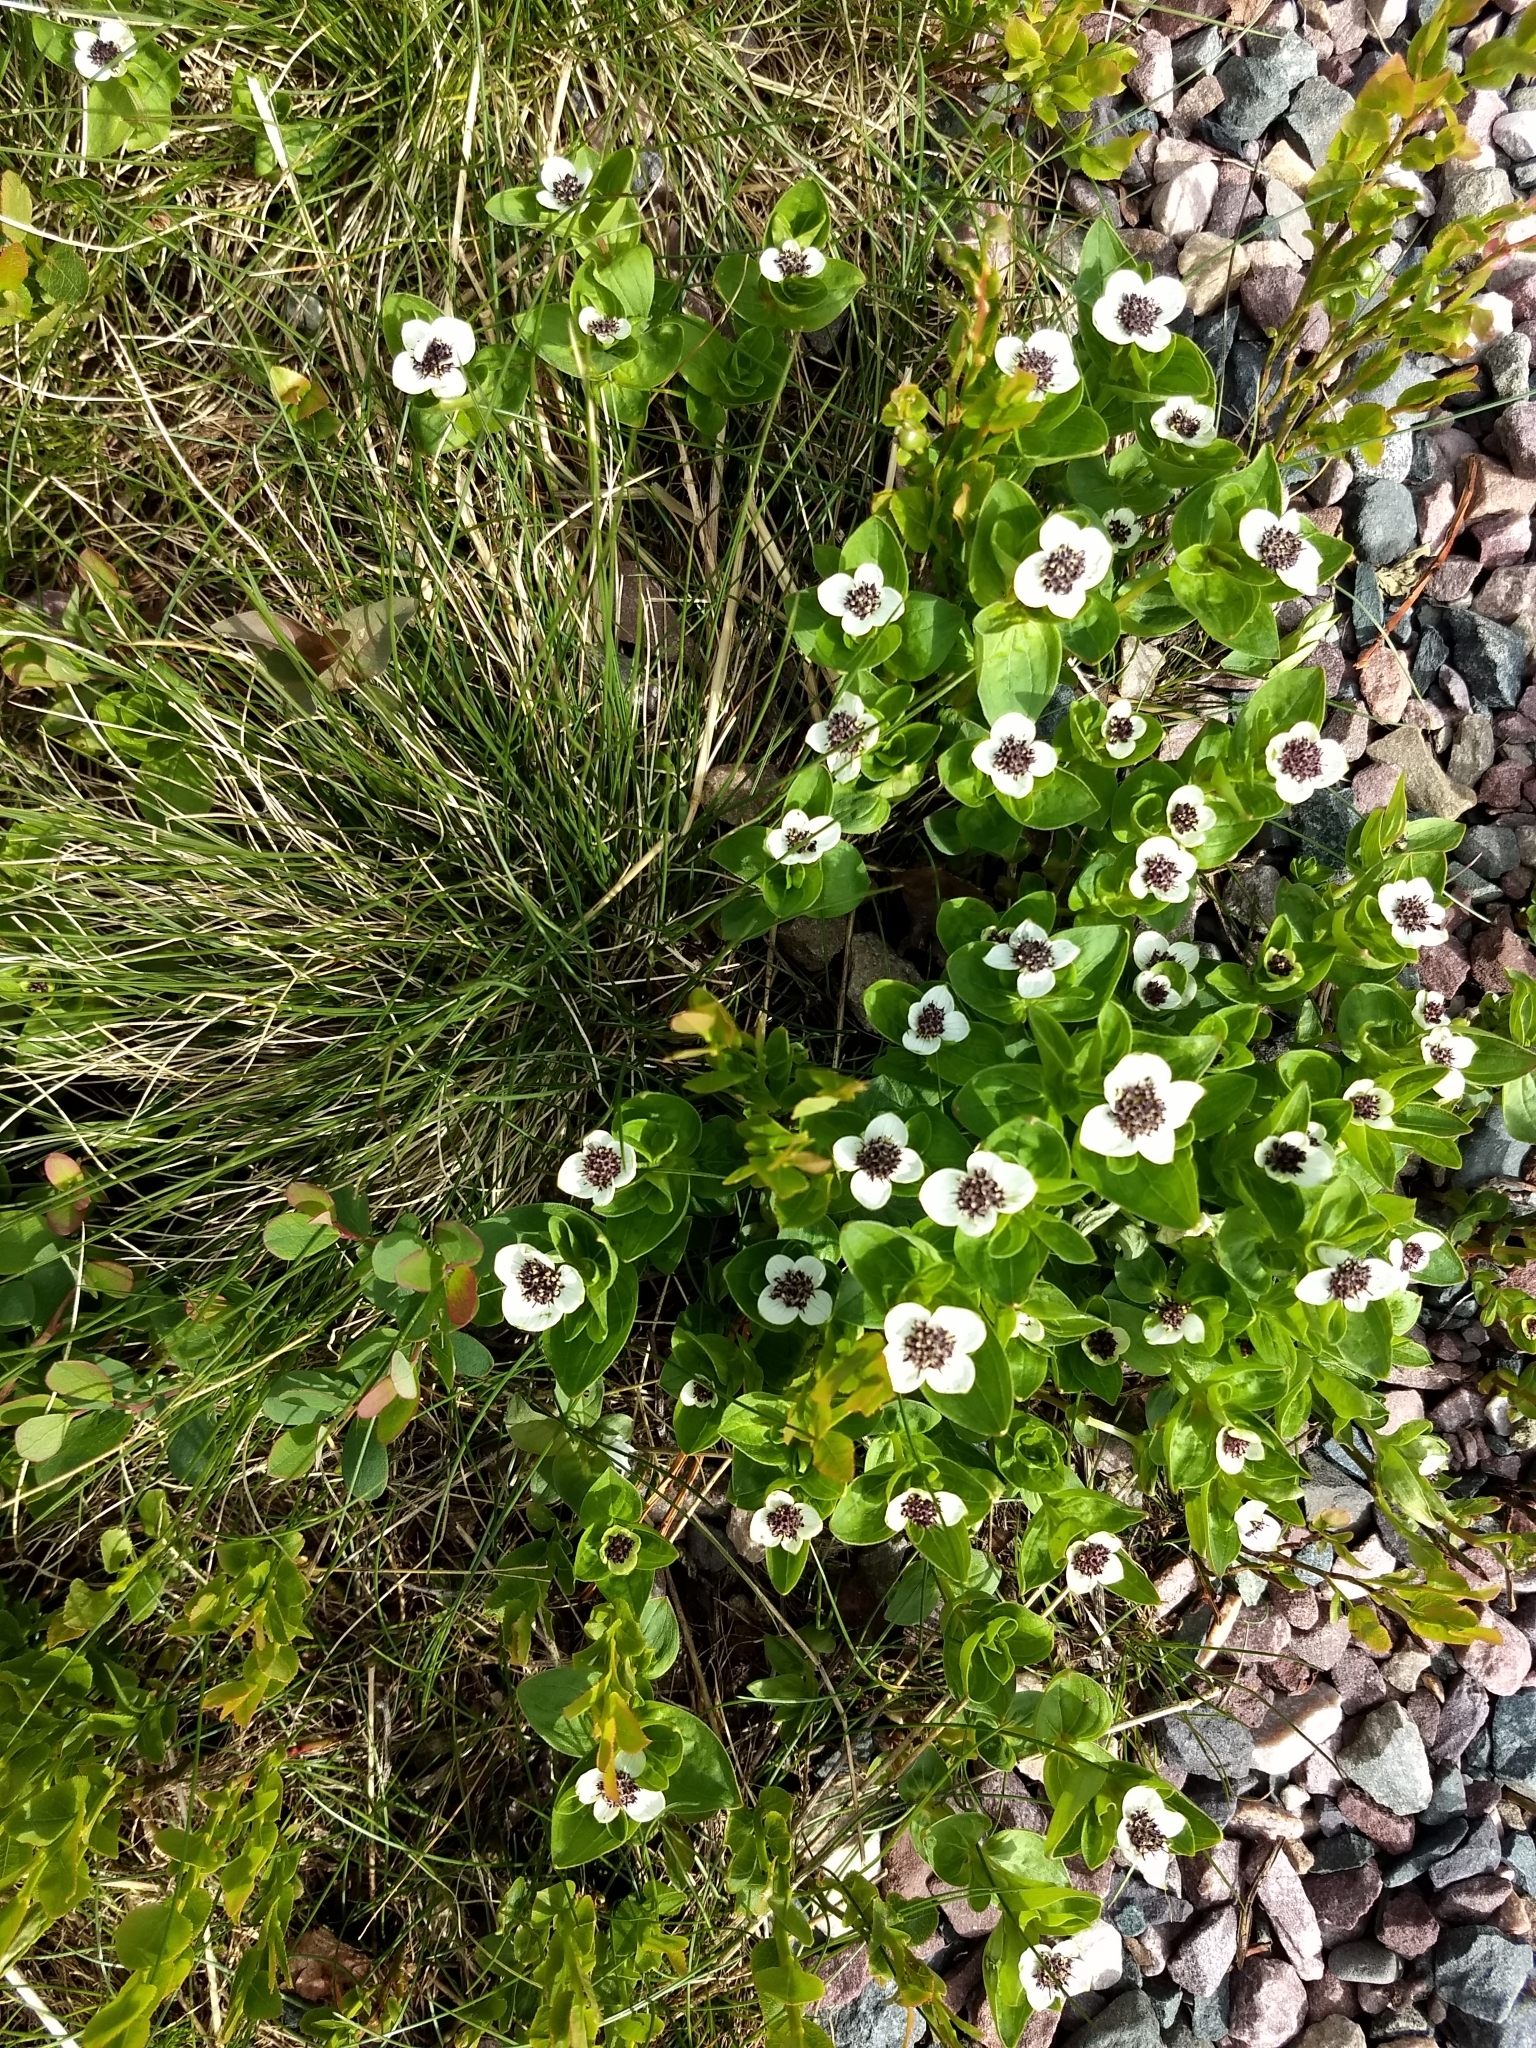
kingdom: Plantae
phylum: Tracheophyta
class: Magnoliopsida
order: Cornales
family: Cornaceae
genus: Cornus
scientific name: Cornus suecica
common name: Dwarf cornel
